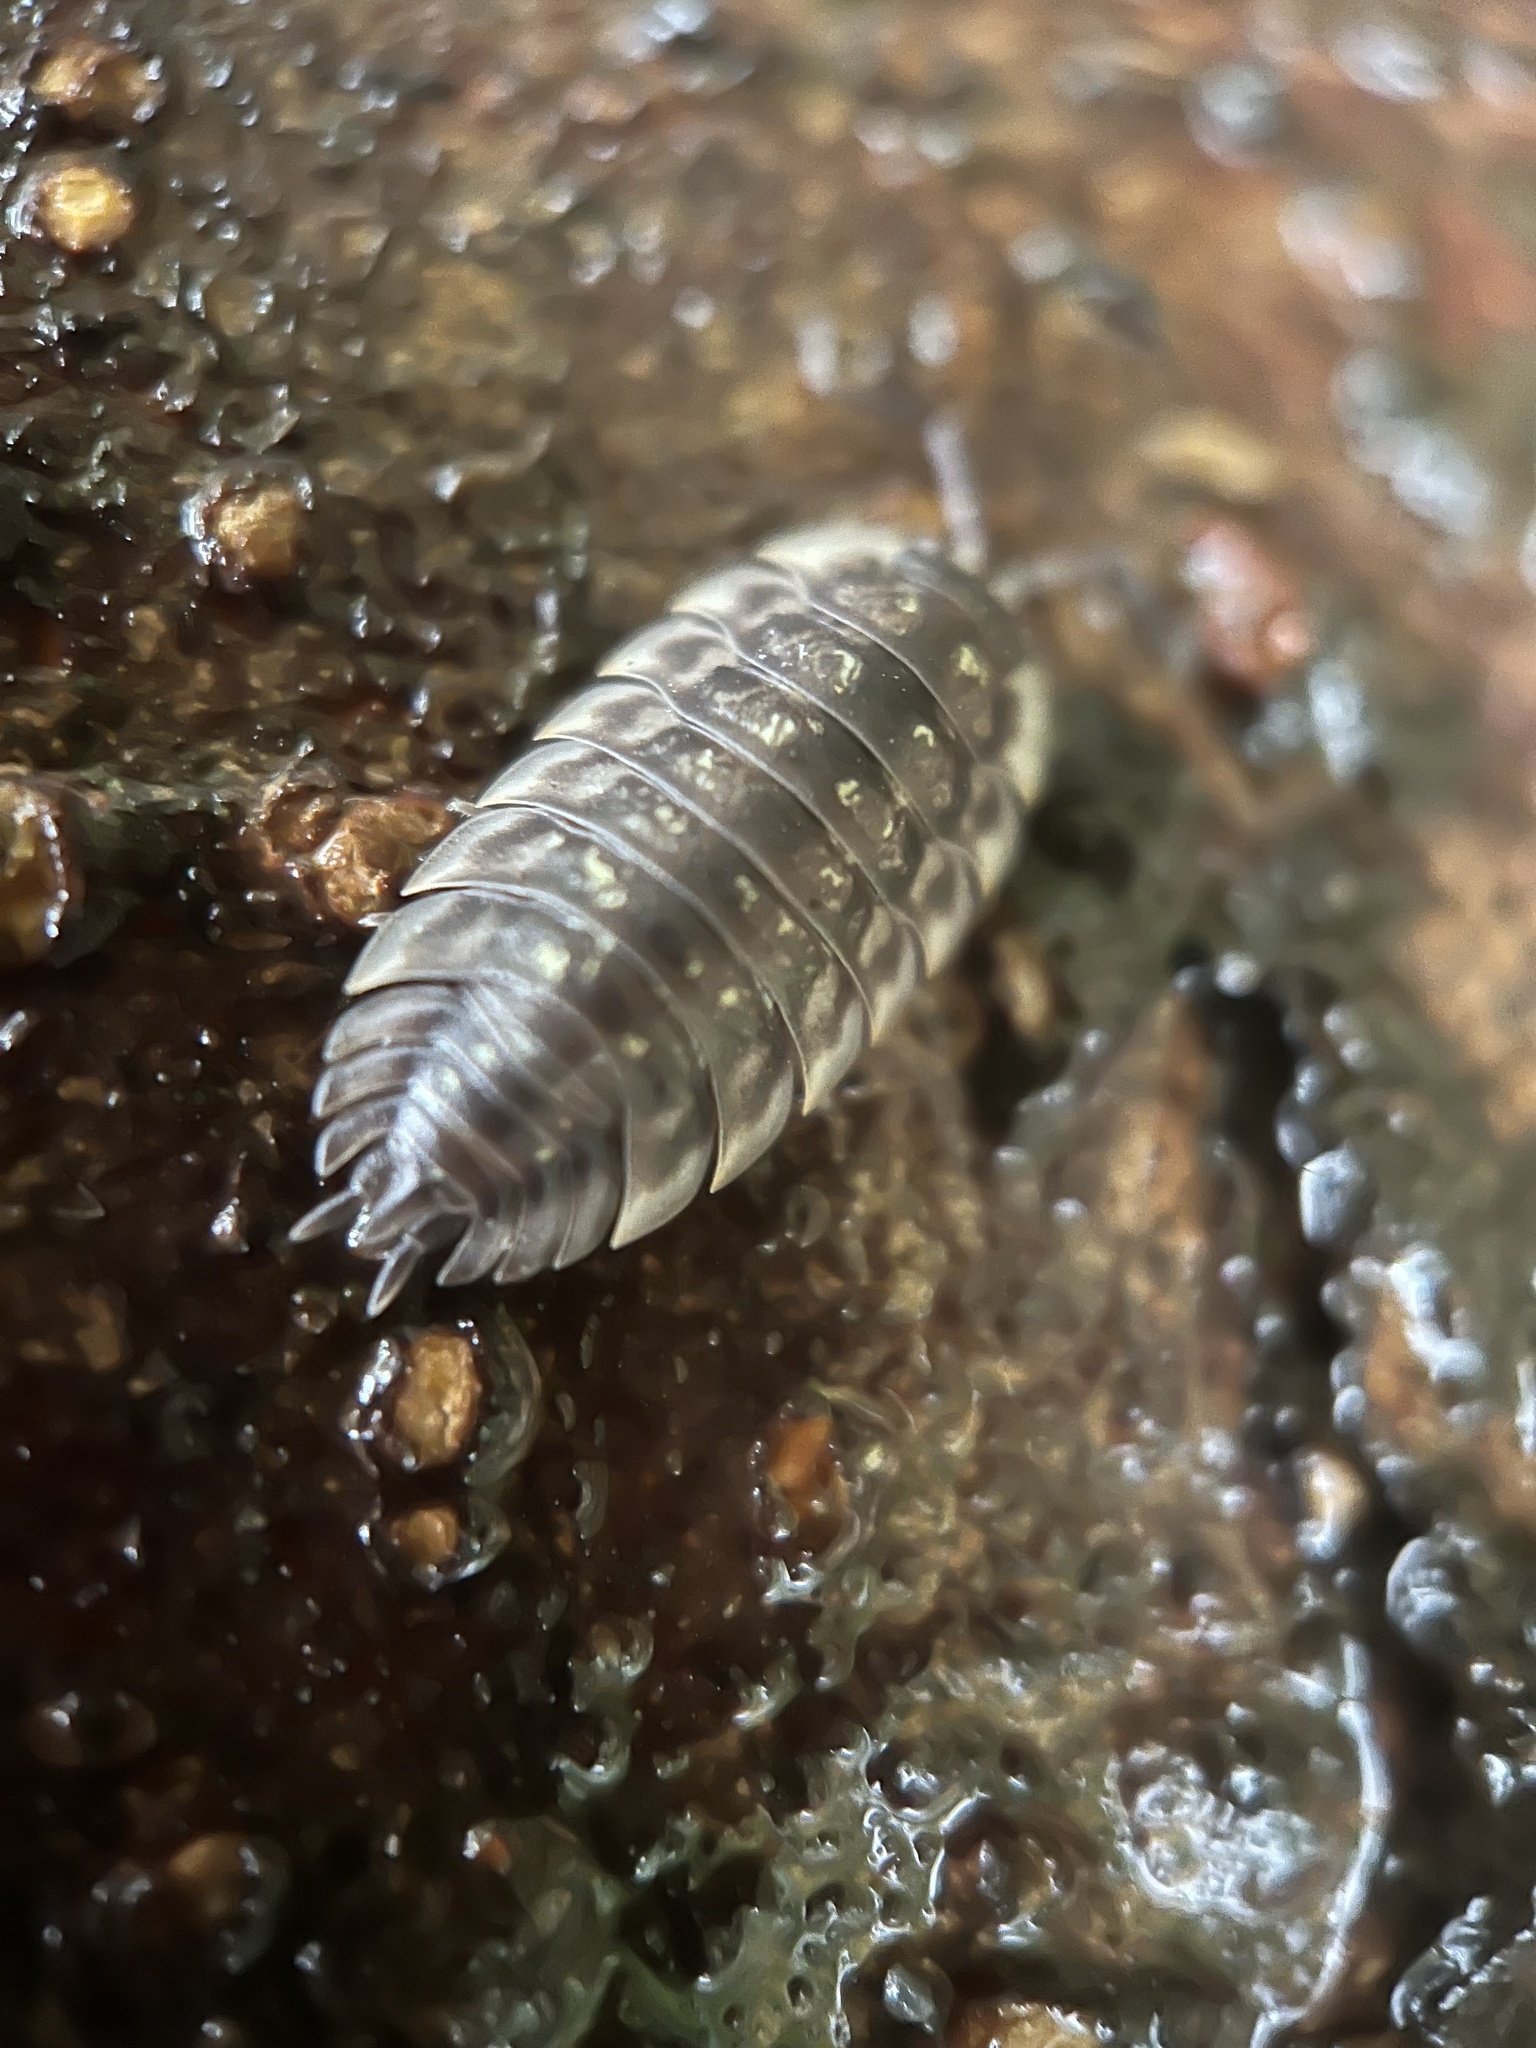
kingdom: Animalia
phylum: Arthropoda
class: Malacostraca
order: Isopoda
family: Oniscidae
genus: Oniscus
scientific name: Oniscus asellus
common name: Common shiny woodlouse
